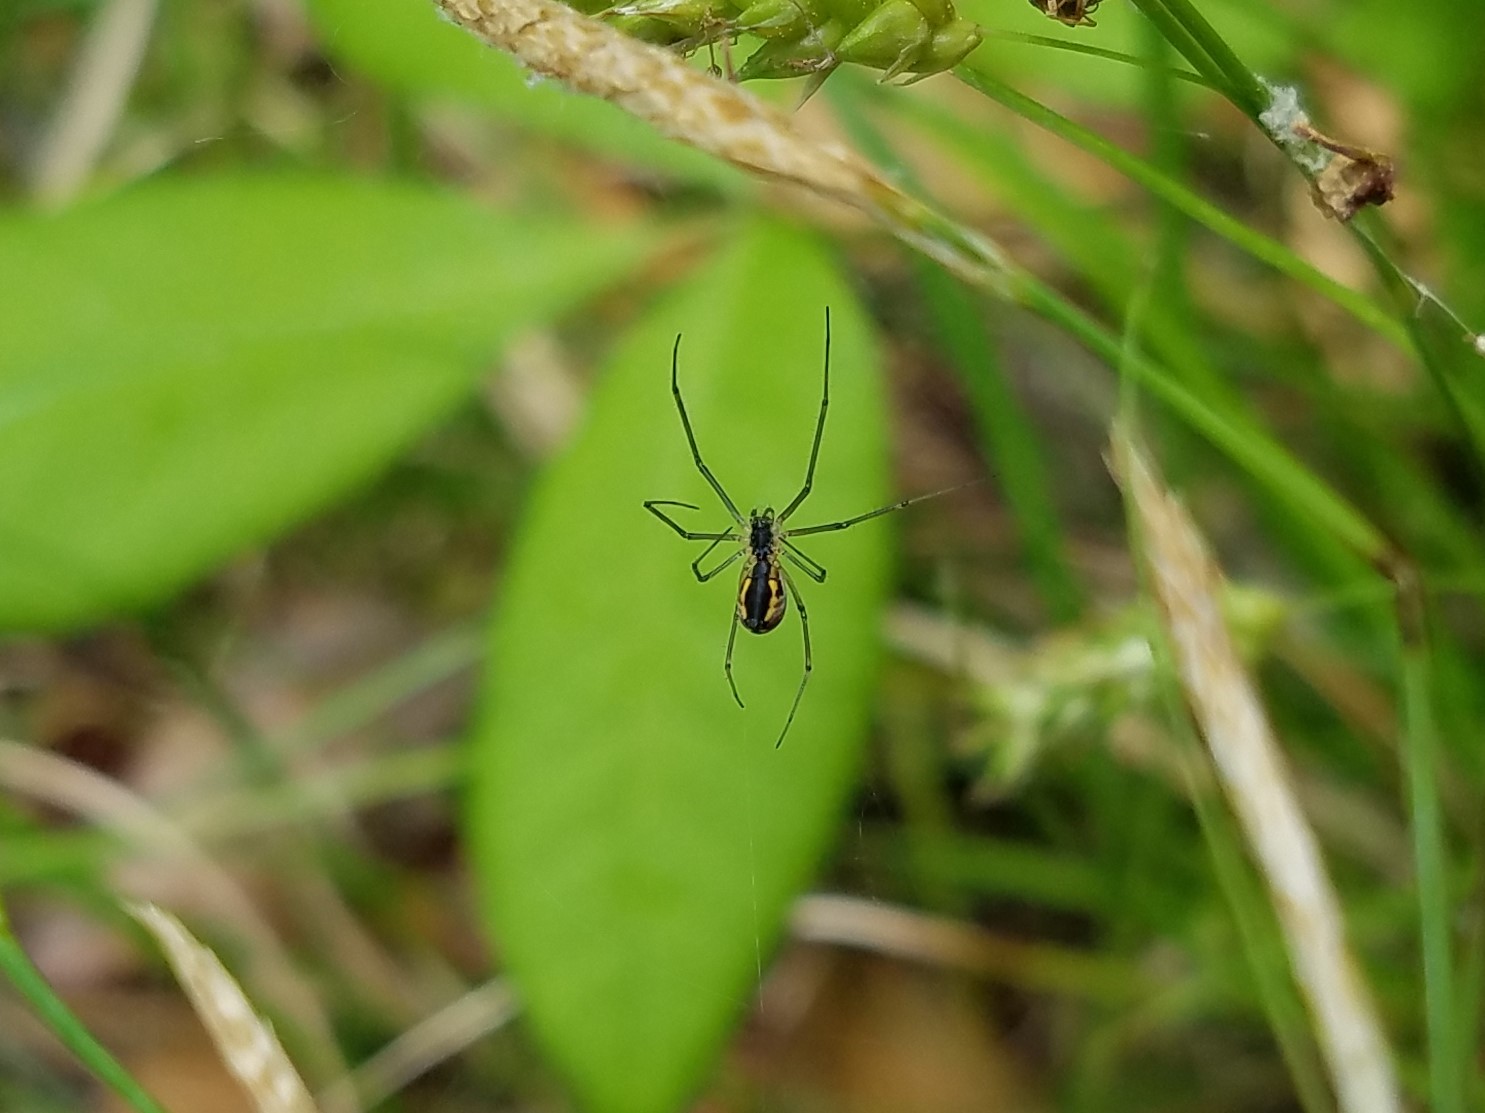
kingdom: Animalia
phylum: Arthropoda
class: Arachnida
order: Araneae
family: Linyphiidae
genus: Neriene
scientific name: Neriene radiata
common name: Filmy dome spider
